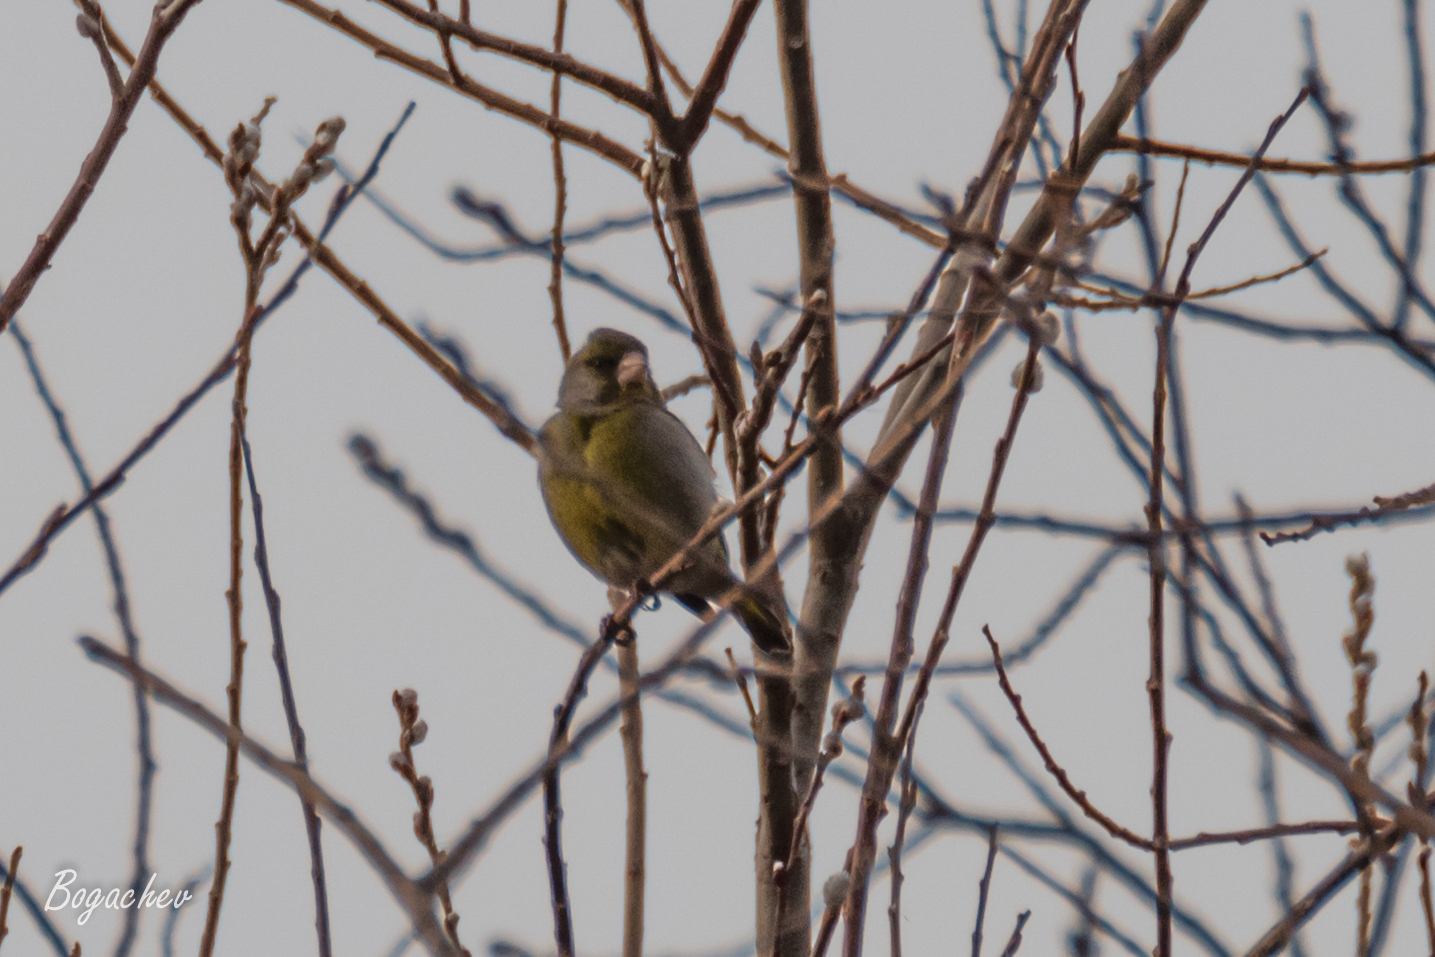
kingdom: Plantae
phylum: Tracheophyta
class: Liliopsida
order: Poales
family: Poaceae
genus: Chloris
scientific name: Chloris chloris
